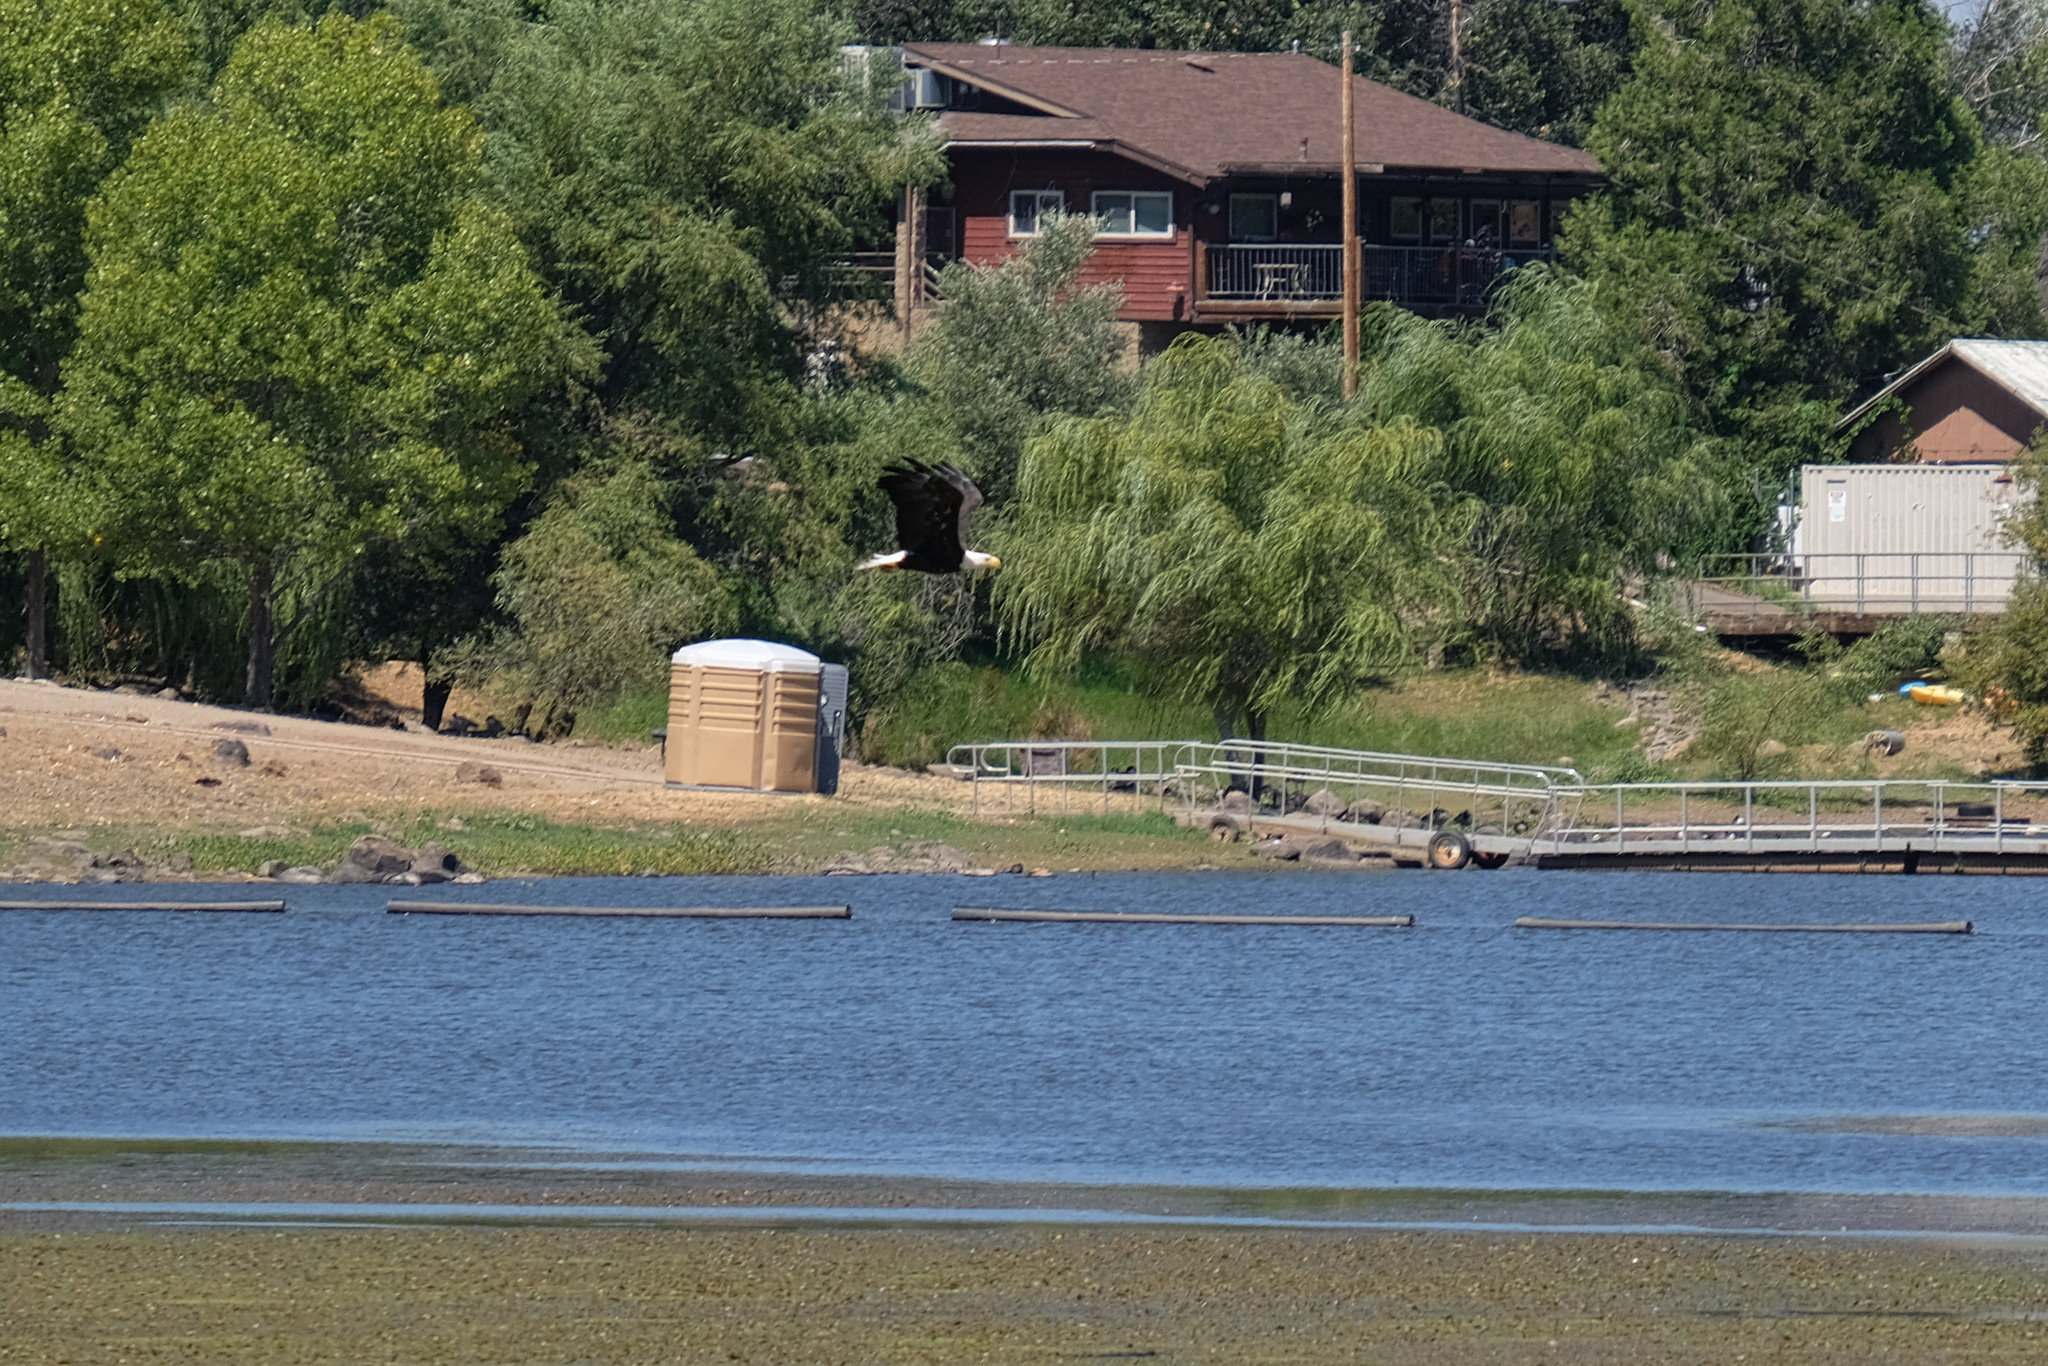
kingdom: Animalia
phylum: Chordata
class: Aves
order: Accipitriformes
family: Accipitridae
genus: Haliaeetus
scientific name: Haliaeetus leucocephalus
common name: Bald eagle
